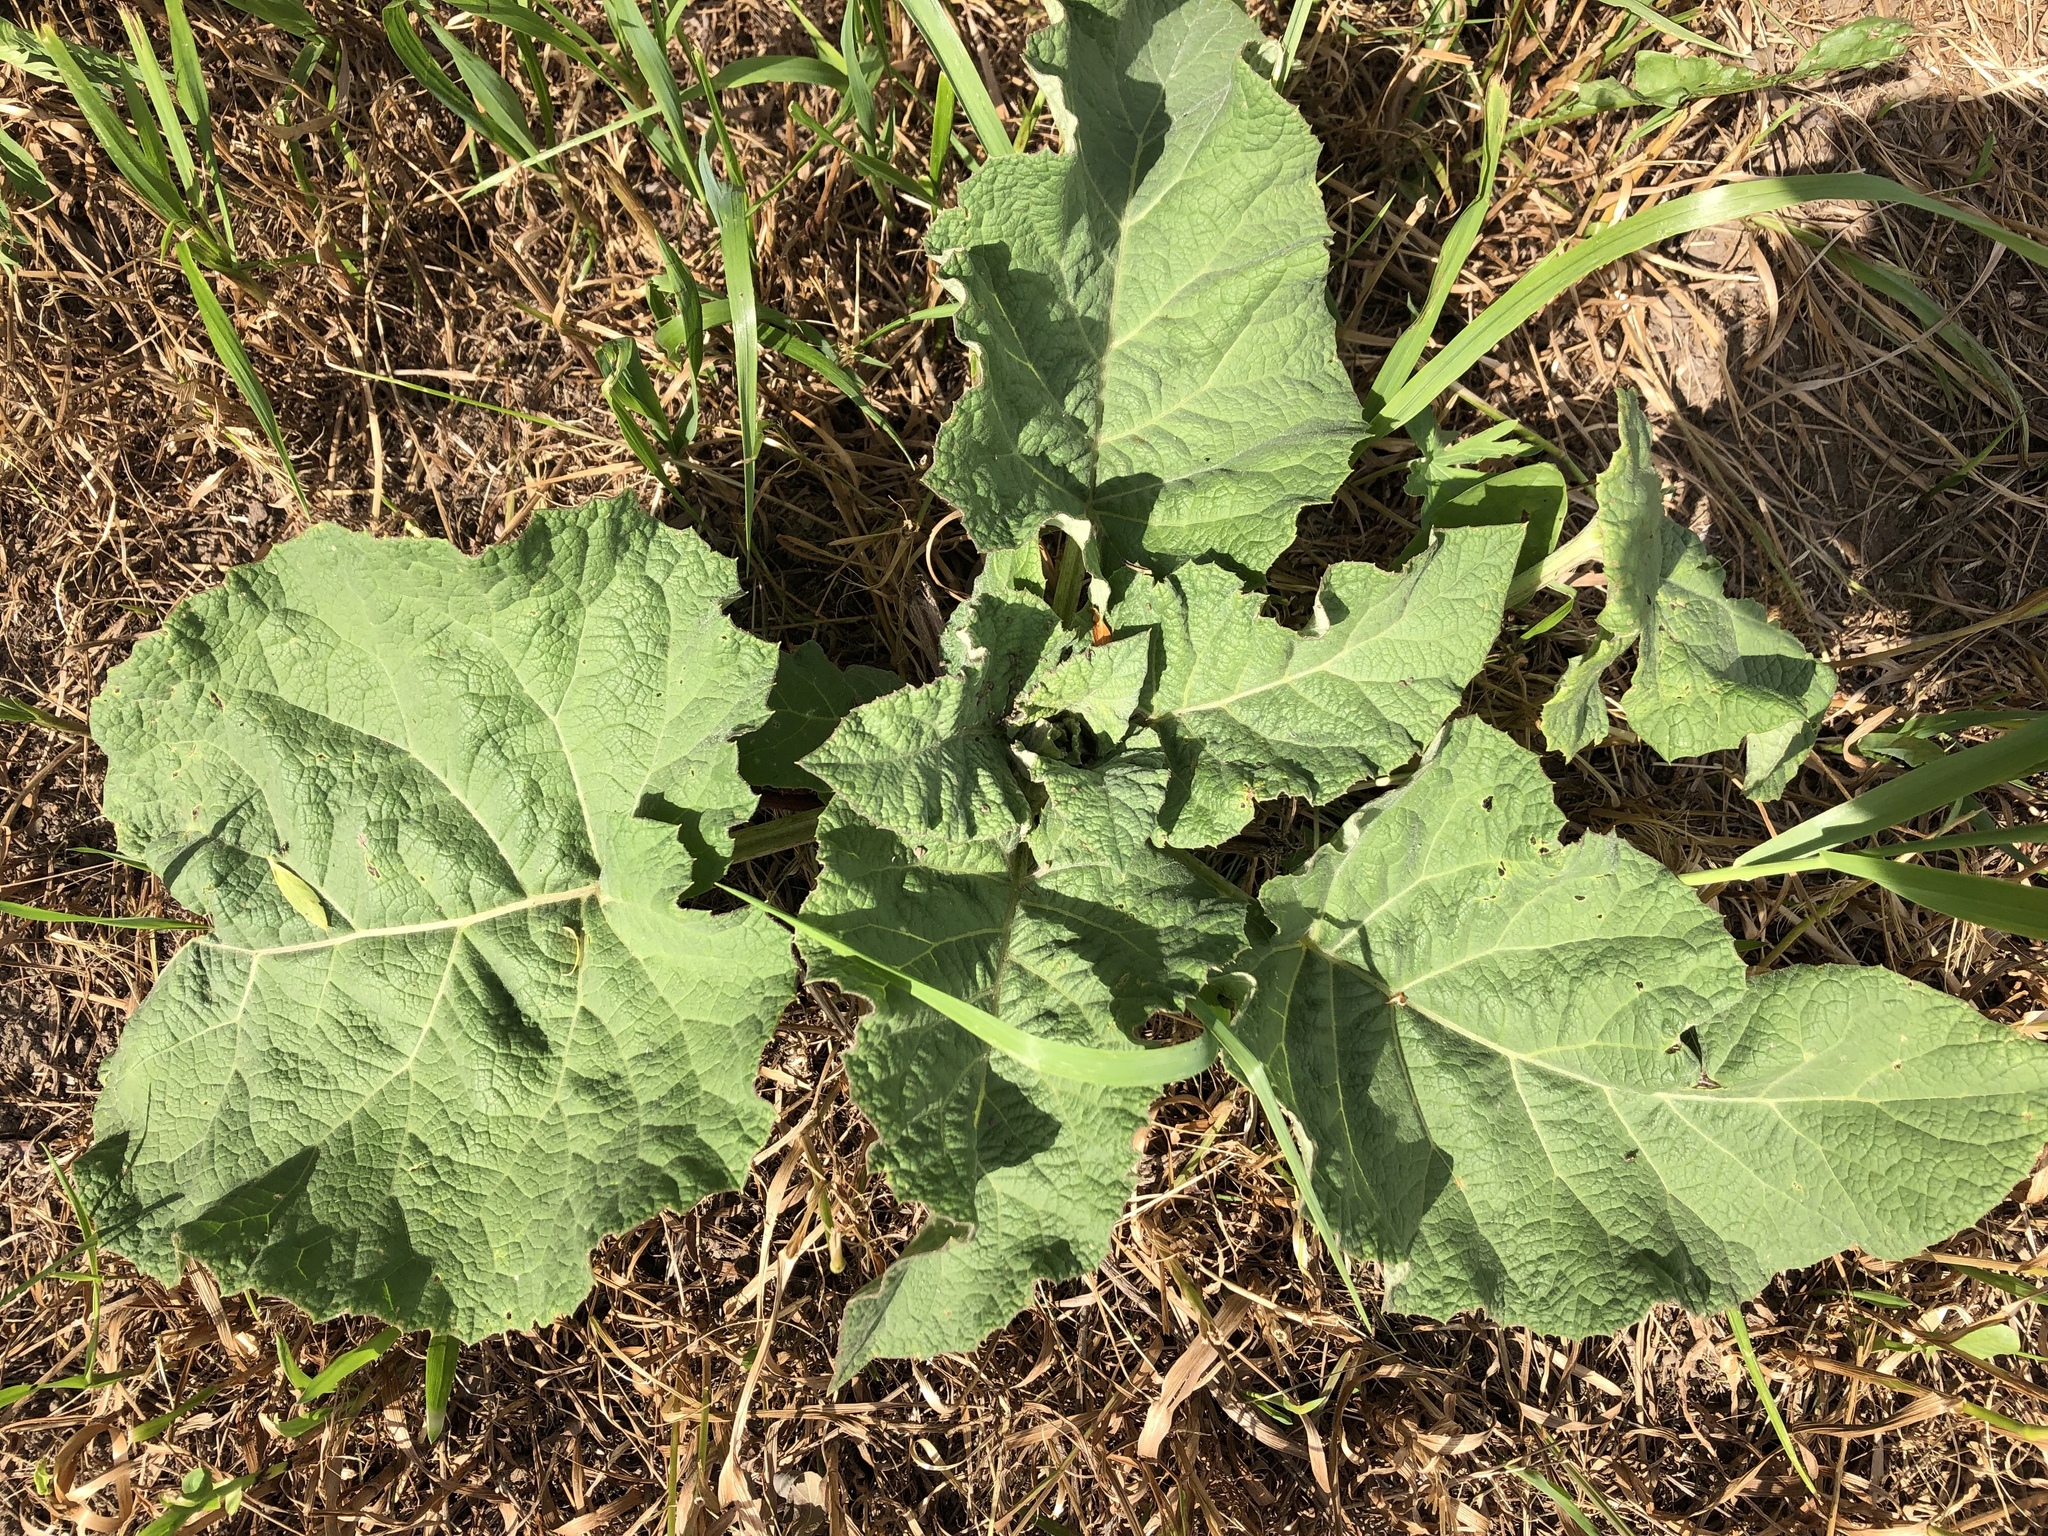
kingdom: Plantae
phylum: Tracheophyta
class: Magnoliopsida
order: Asterales
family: Asteraceae
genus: Arctium
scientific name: Arctium
